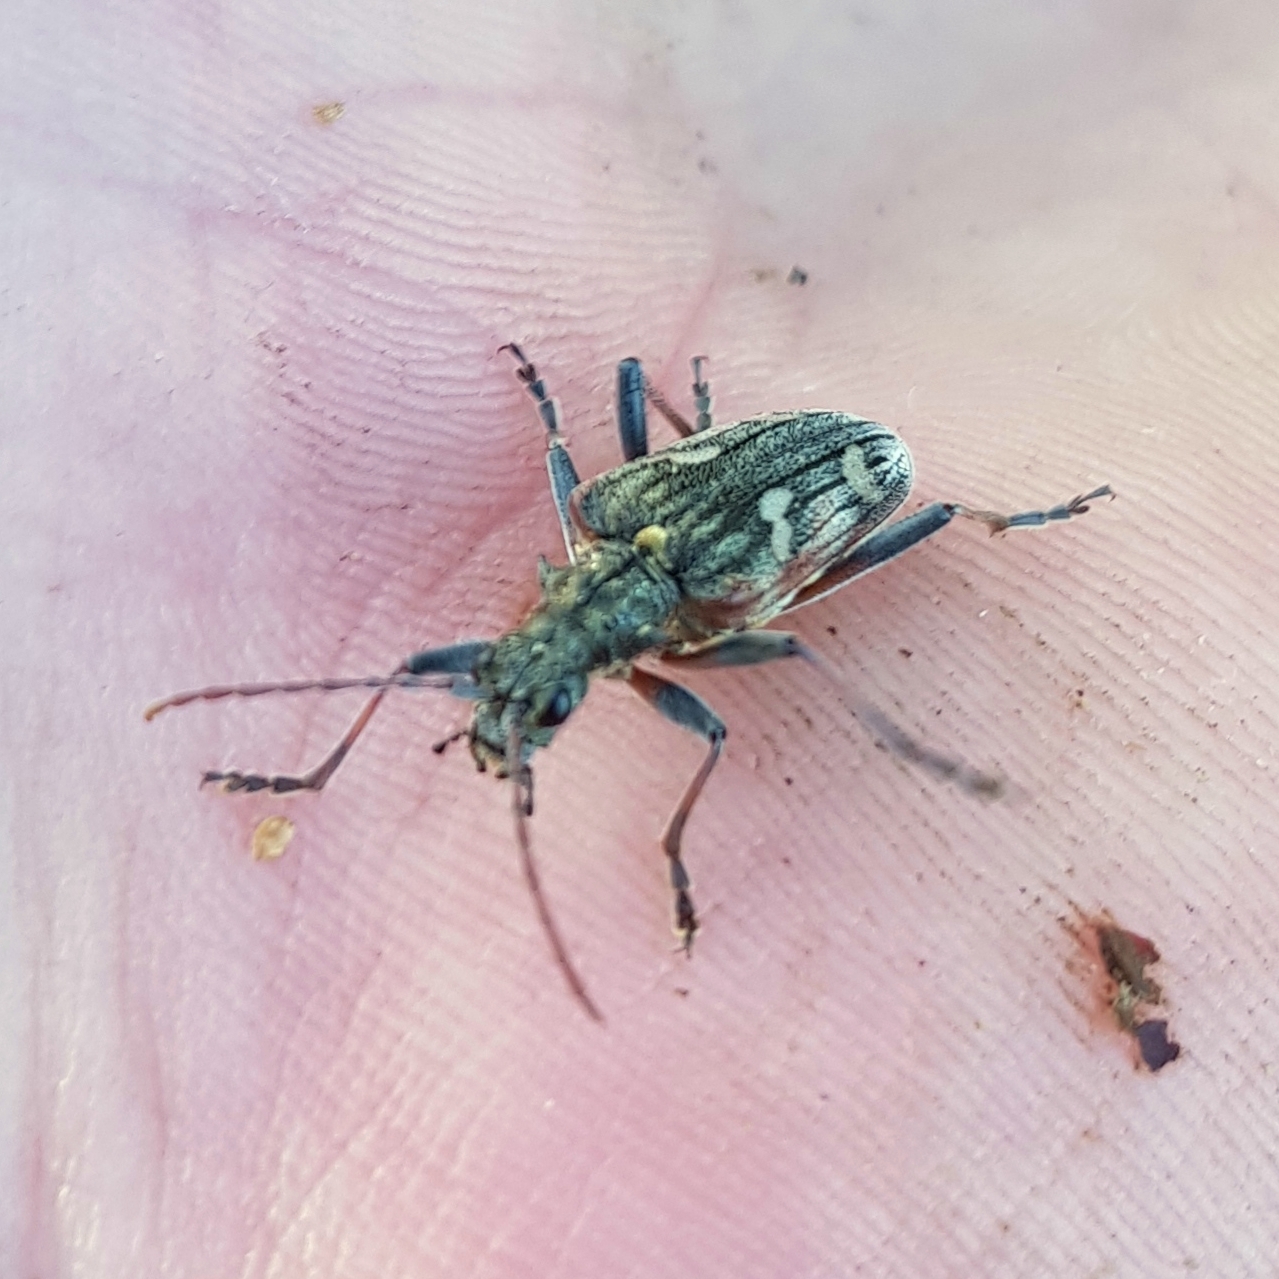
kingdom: Animalia
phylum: Arthropoda
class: Insecta
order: Coleoptera
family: Cerambycidae
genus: Rhagium
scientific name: Rhagium bifasciatum
